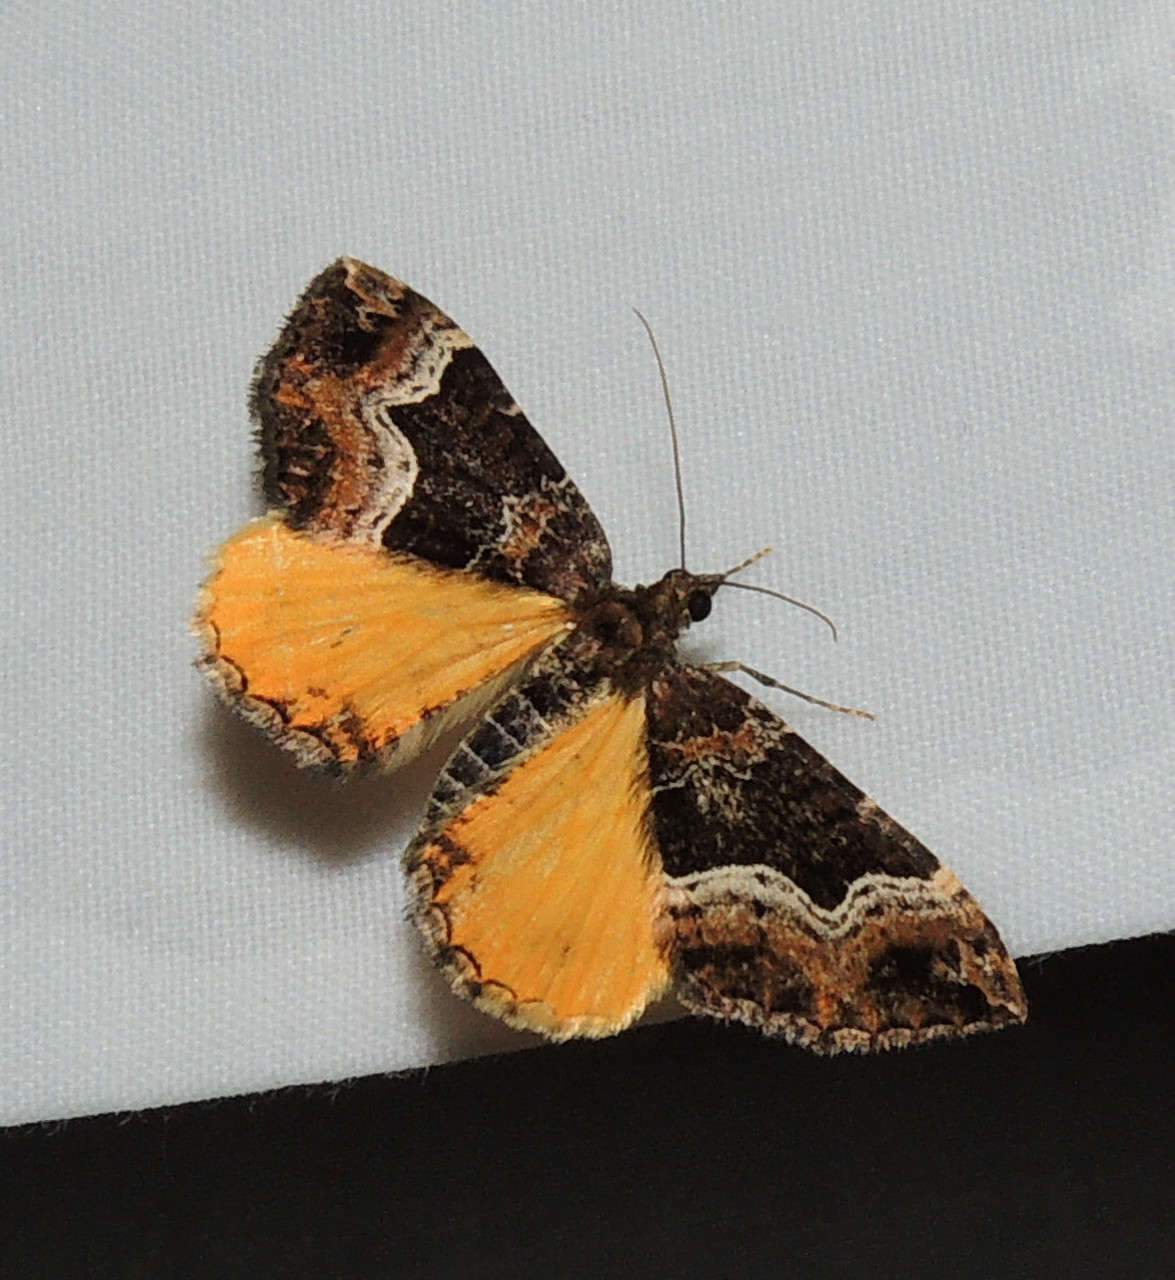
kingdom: Animalia
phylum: Arthropoda
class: Insecta
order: Lepidoptera
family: Geometridae
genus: Chrysolarentia
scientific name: Chrysolarentia lucidulata
